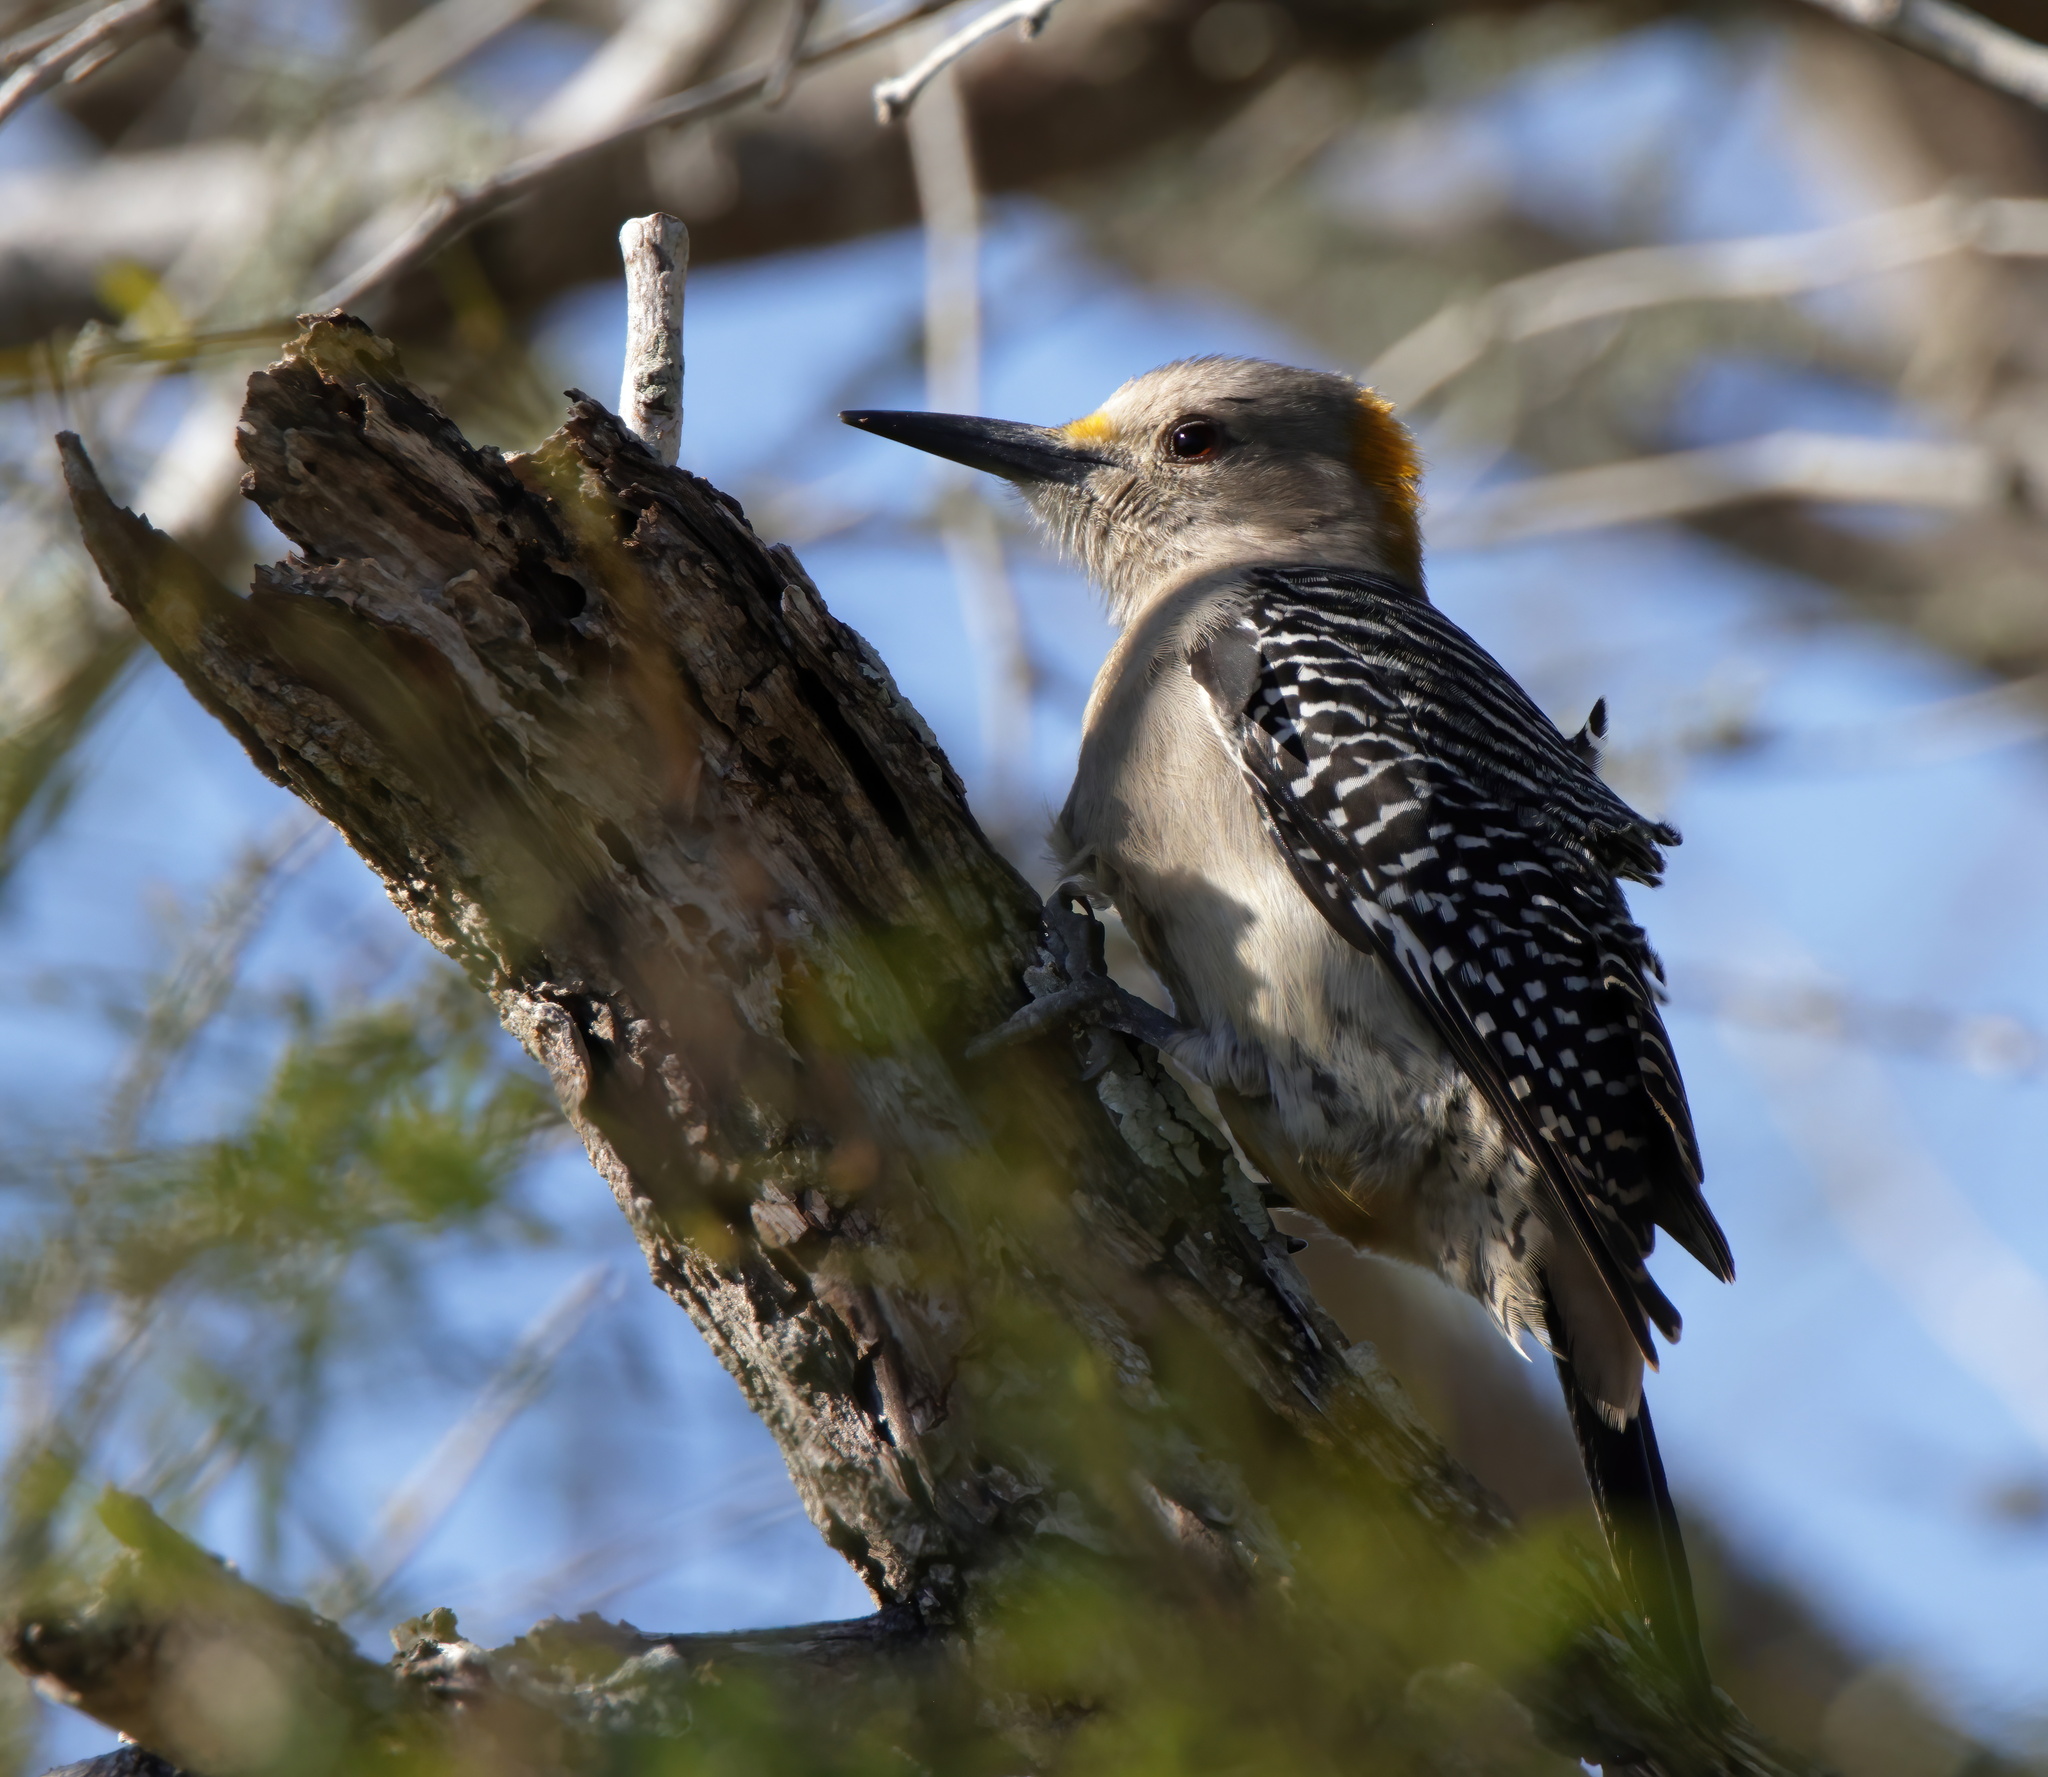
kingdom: Animalia
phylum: Chordata
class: Aves
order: Piciformes
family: Picidae
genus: Melanerpes
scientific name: Melanerpes aurifrons
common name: Golden-fronted woodpecker
